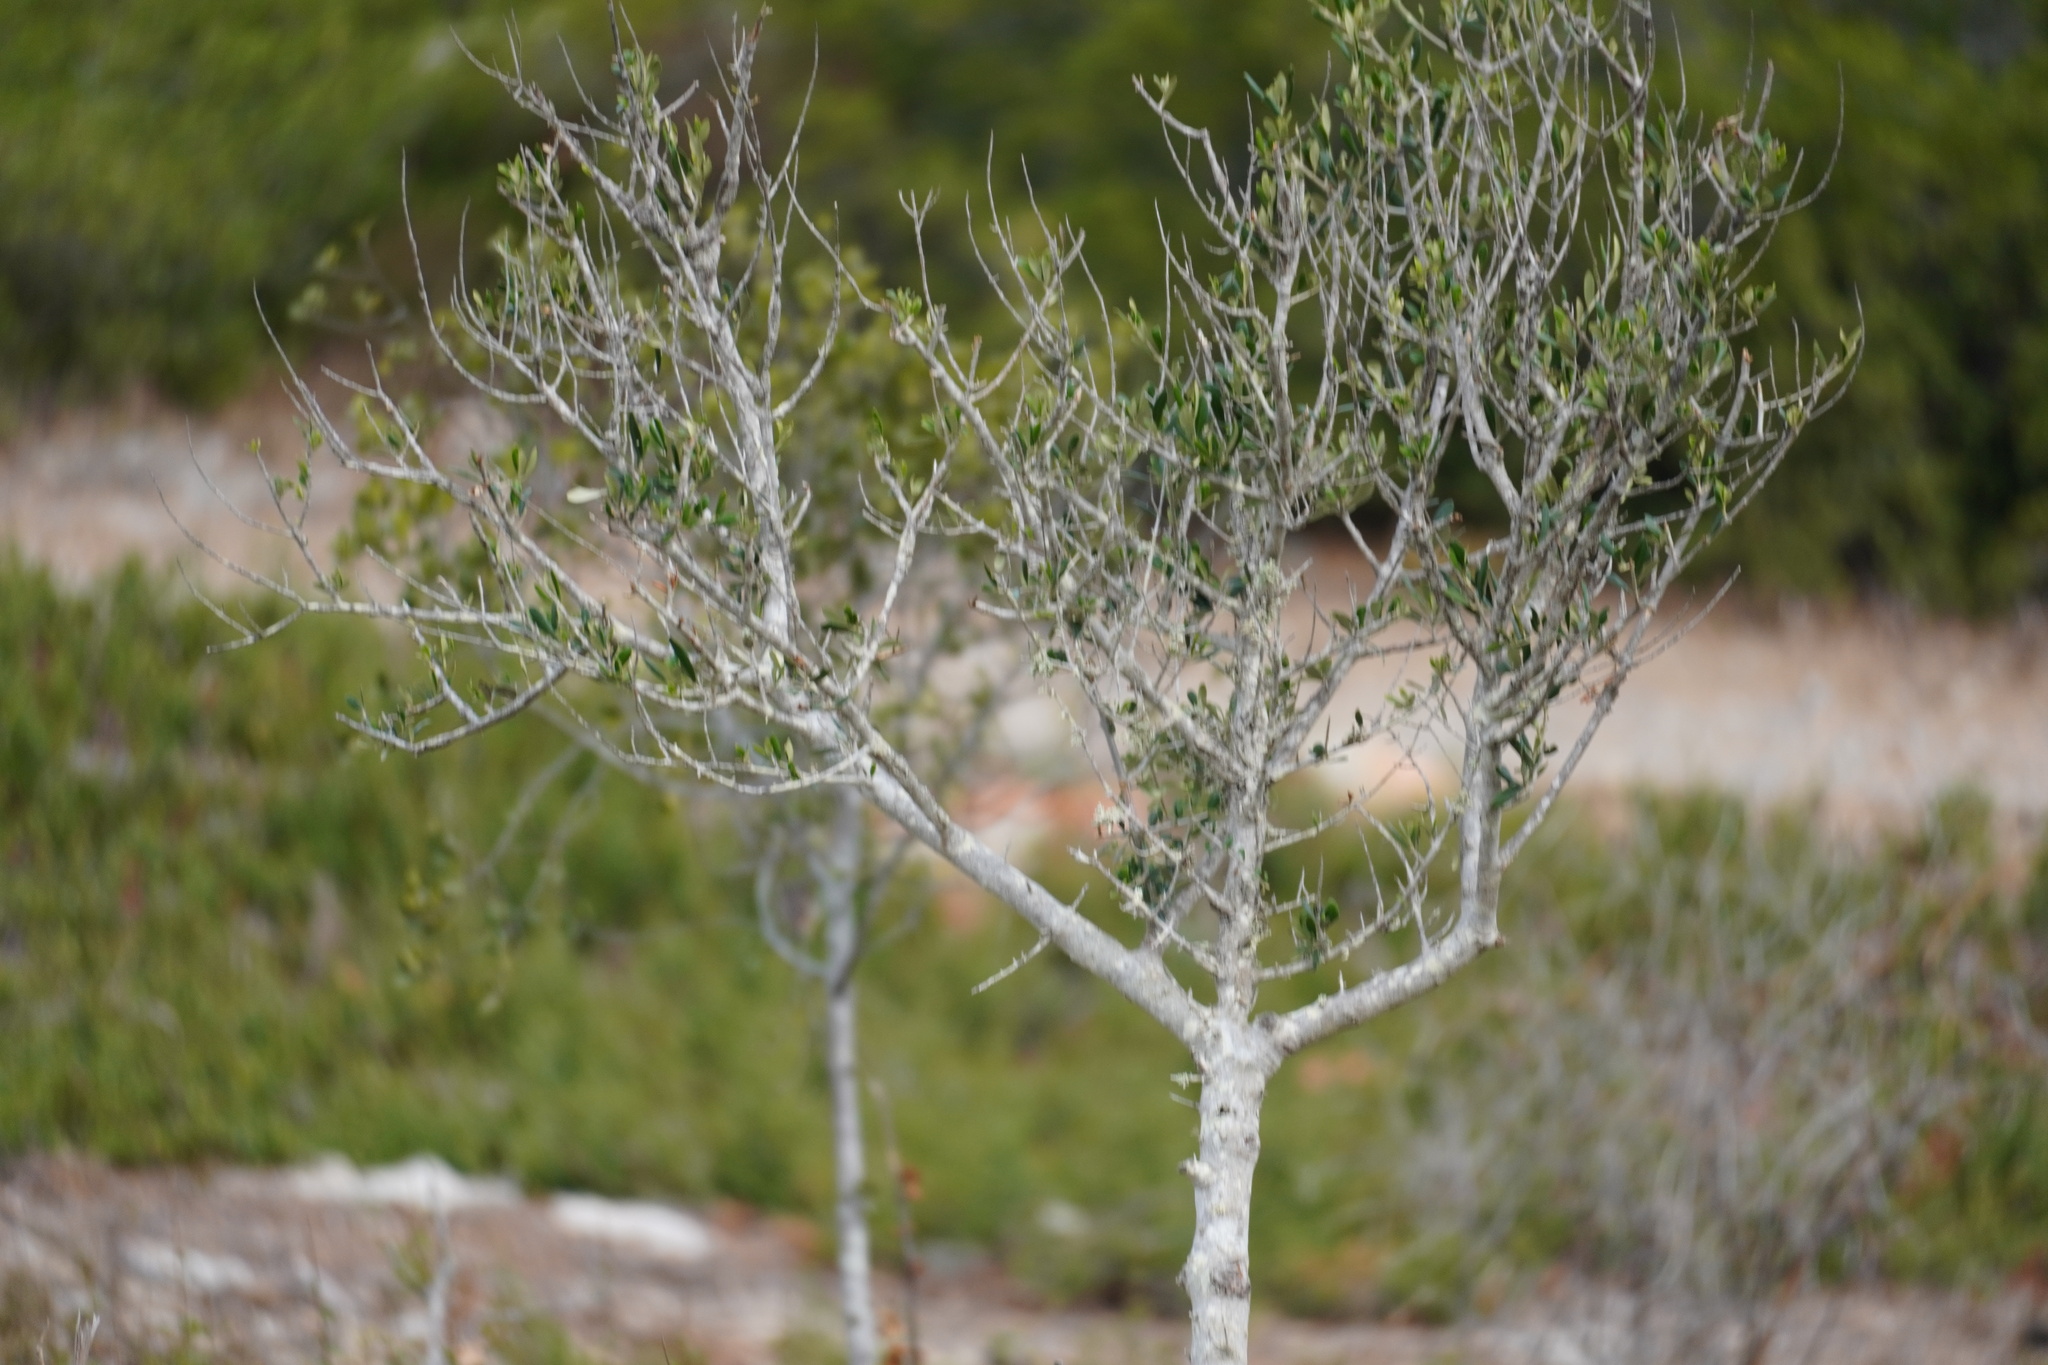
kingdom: Plantae
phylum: Tracheophyta
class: Magnoliopsida
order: Lamiales
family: Oleaceae
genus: Olea
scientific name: Olea europaea
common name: Olive
